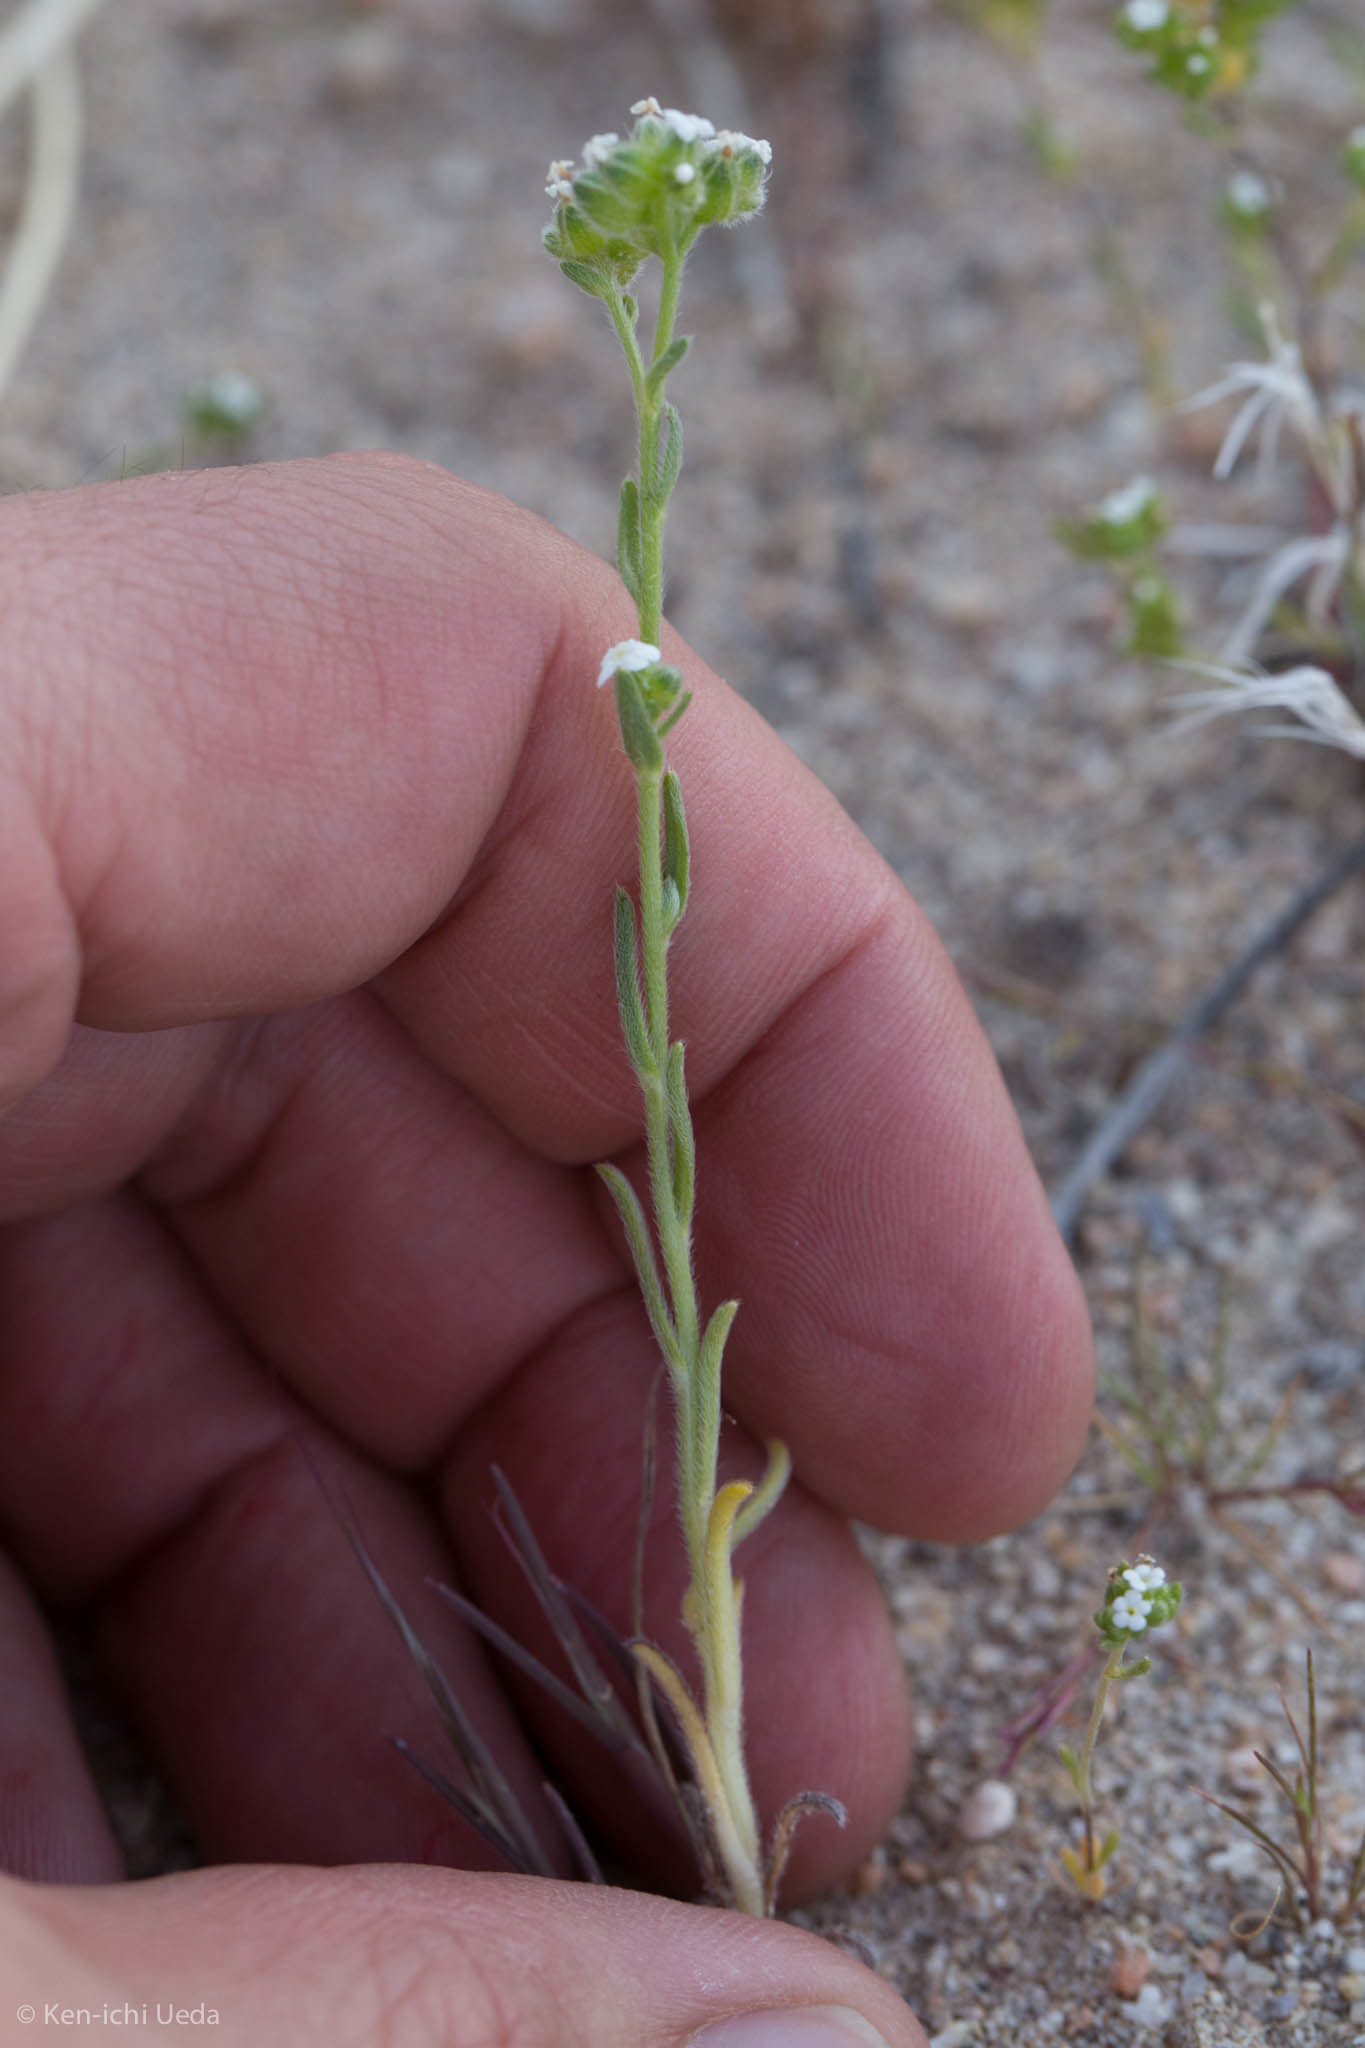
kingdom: Plantae
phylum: Tracheophyta
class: Magnoliopsida
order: Boraginales
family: Boraginaceae
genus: Cryptantha
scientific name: Cryptantha pterocarya
